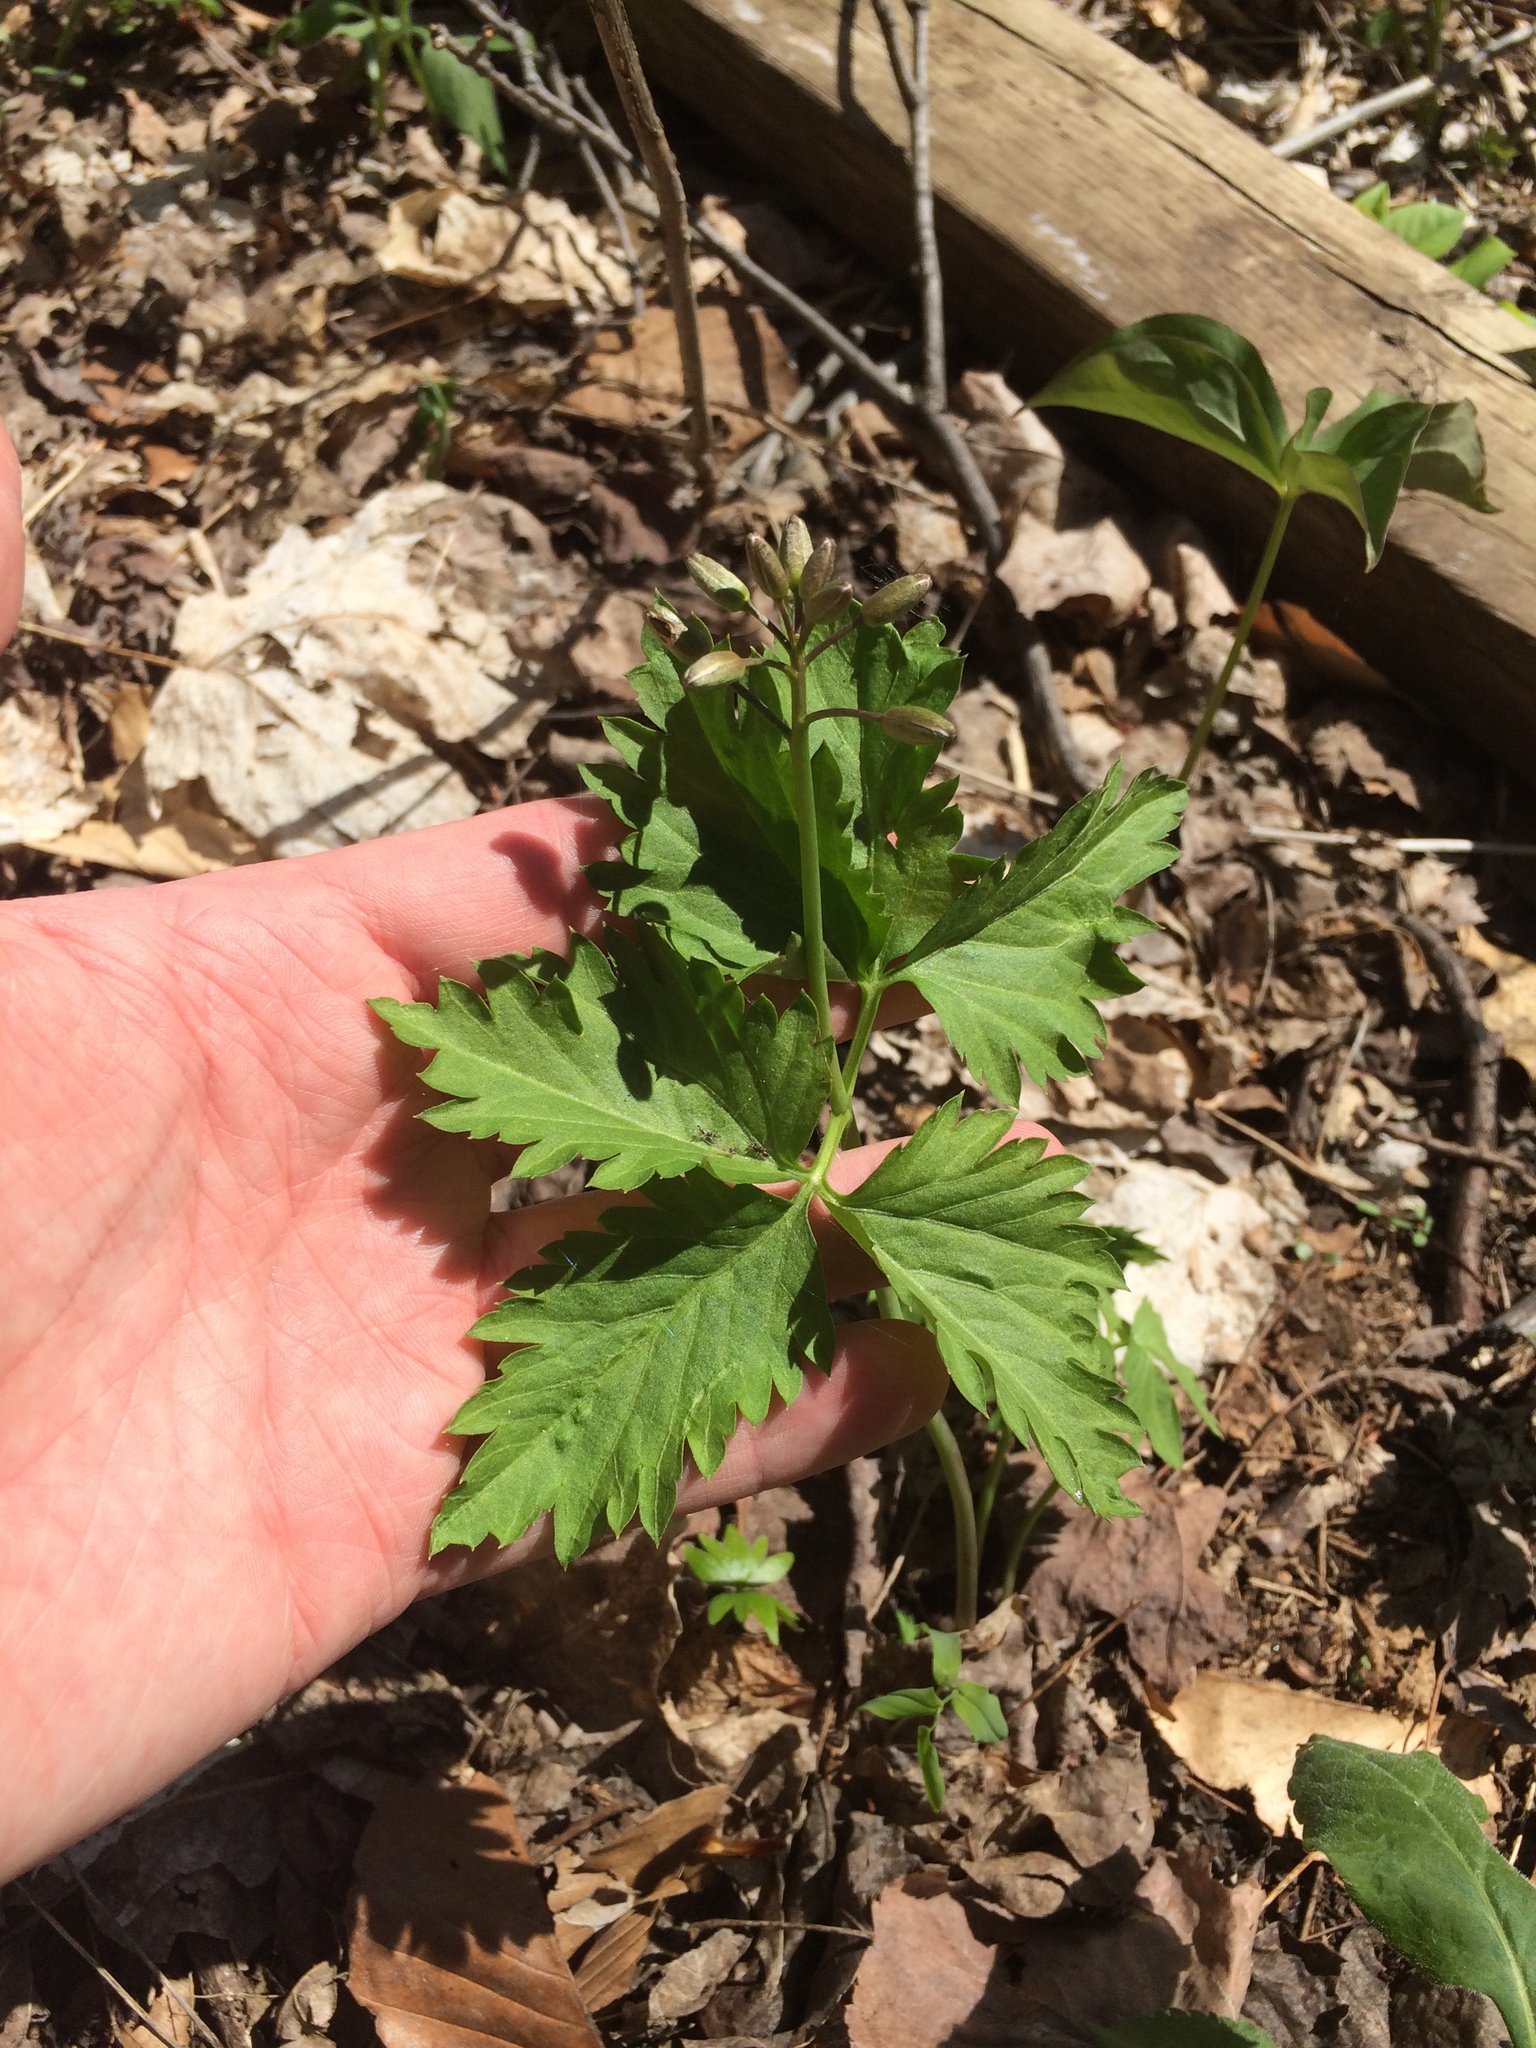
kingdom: Plantae
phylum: Tracheophyta
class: Magnoliopsida
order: Brassicales
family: Brassicaceae
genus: Cardamine
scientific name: Cardamine maxima
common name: Great bittercress
